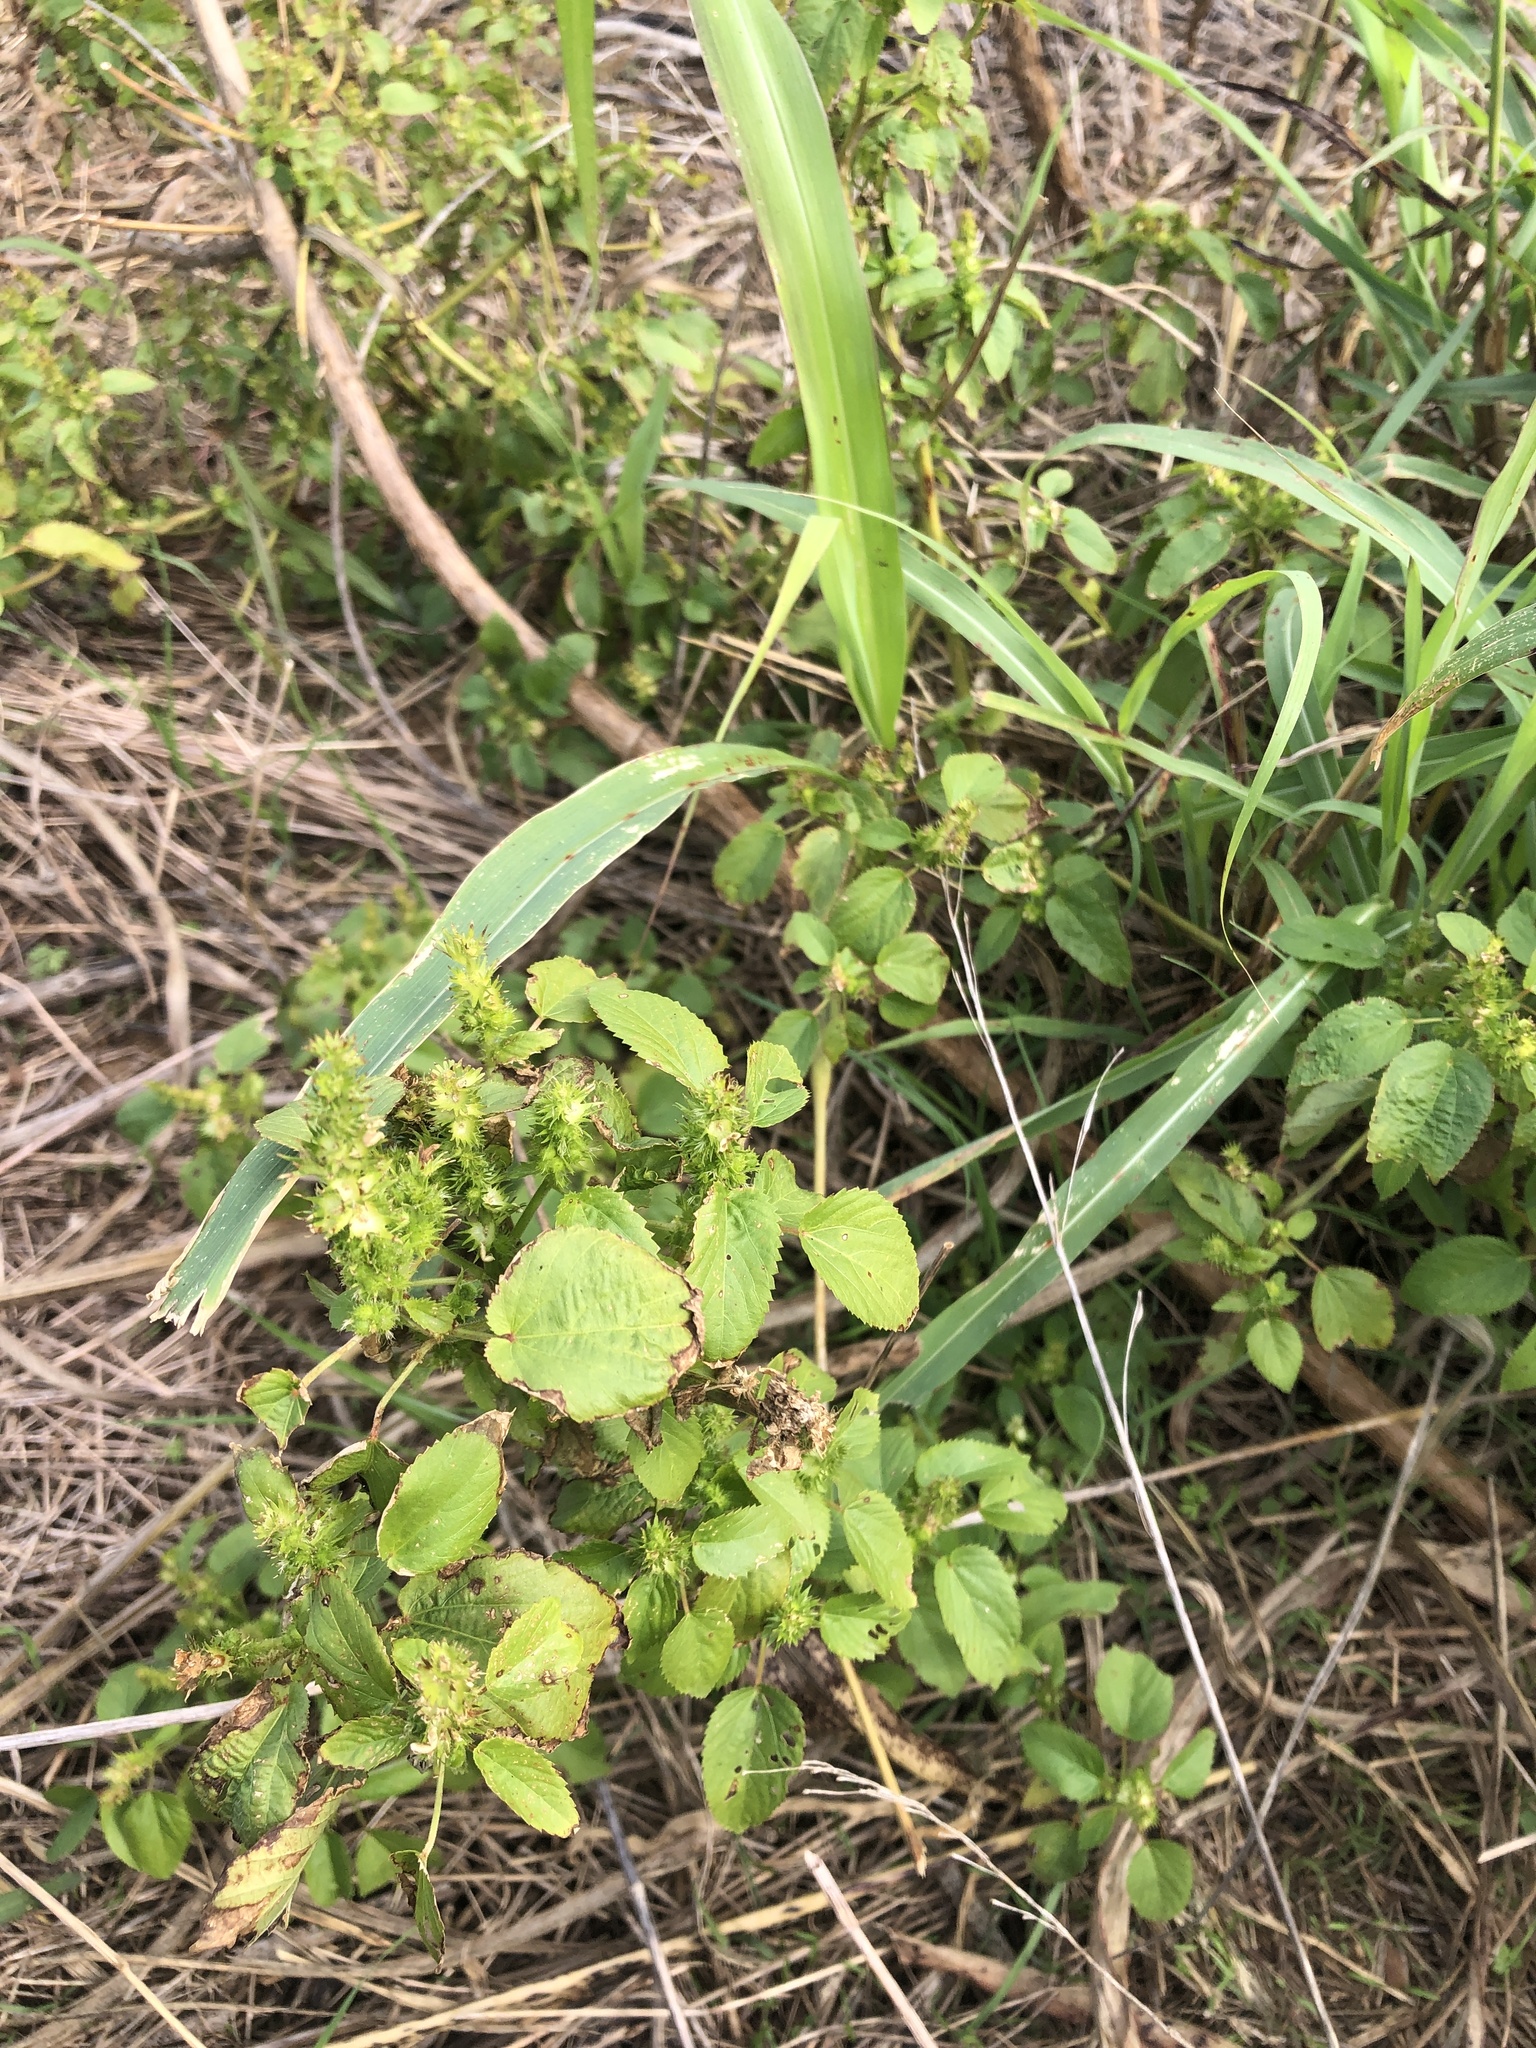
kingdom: Plantae
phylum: Tracheophyta
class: Magnoliopsida
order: Malpighiales
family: Euphorbiaceae
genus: Acalypha
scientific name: Acalypha ostryifolia
